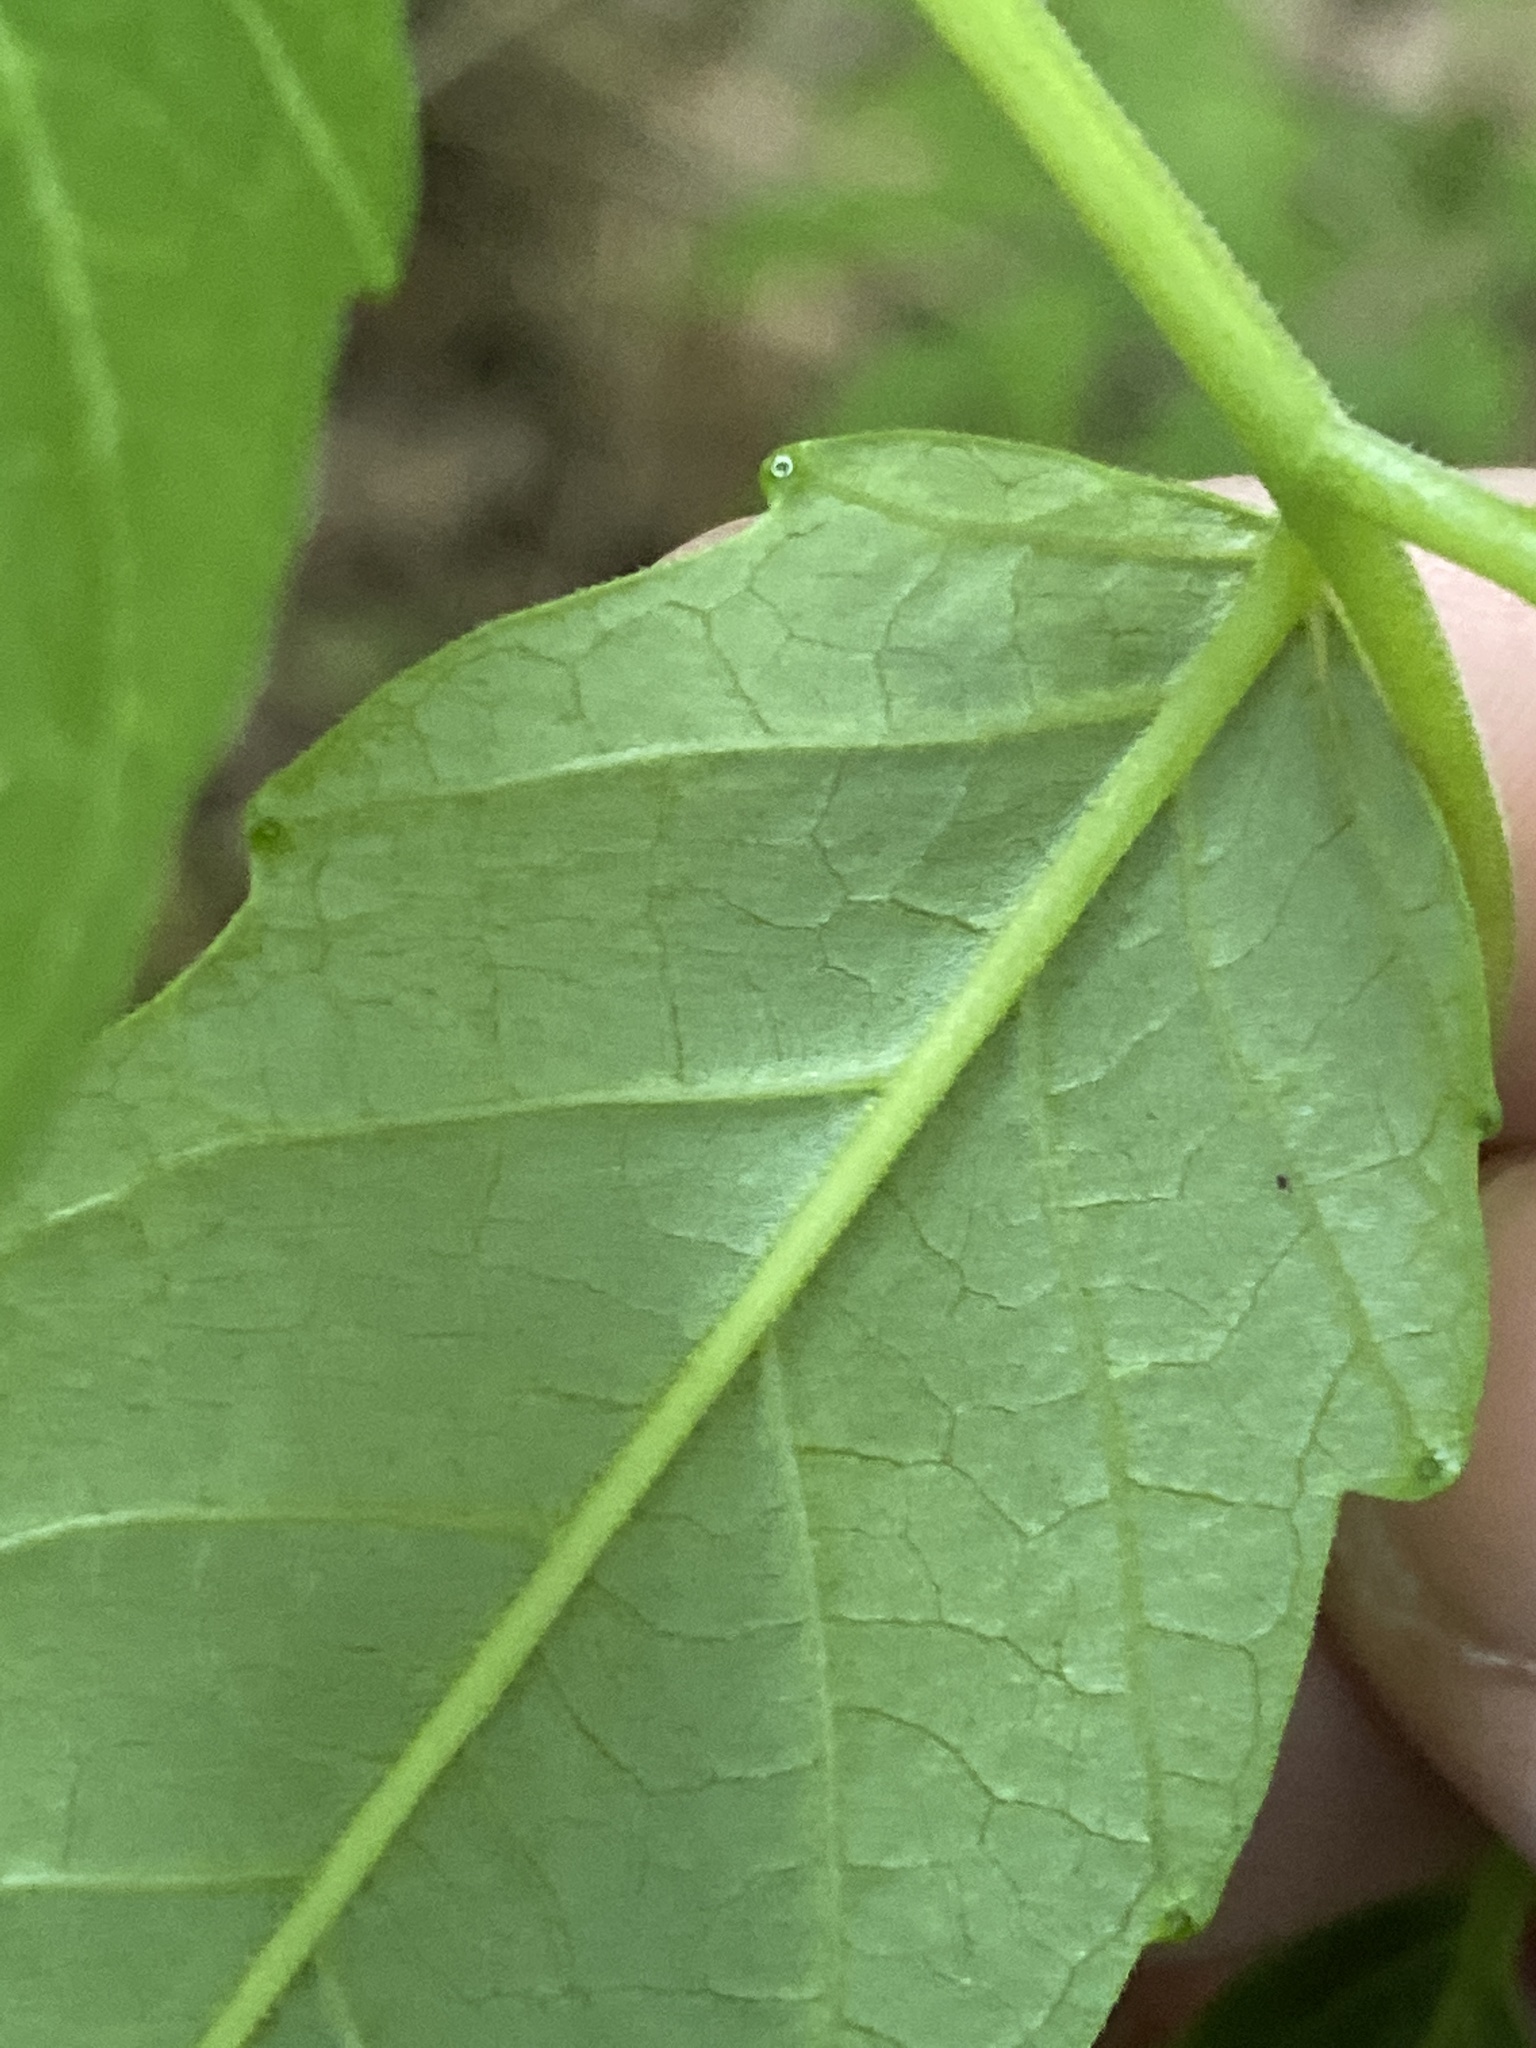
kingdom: Plantae
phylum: Tracheophyta
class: Magnoliopsida
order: Sapindales
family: Simaroubaceae
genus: Ailanthus
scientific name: Ailanthus altissima
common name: Tree-of-heaven
